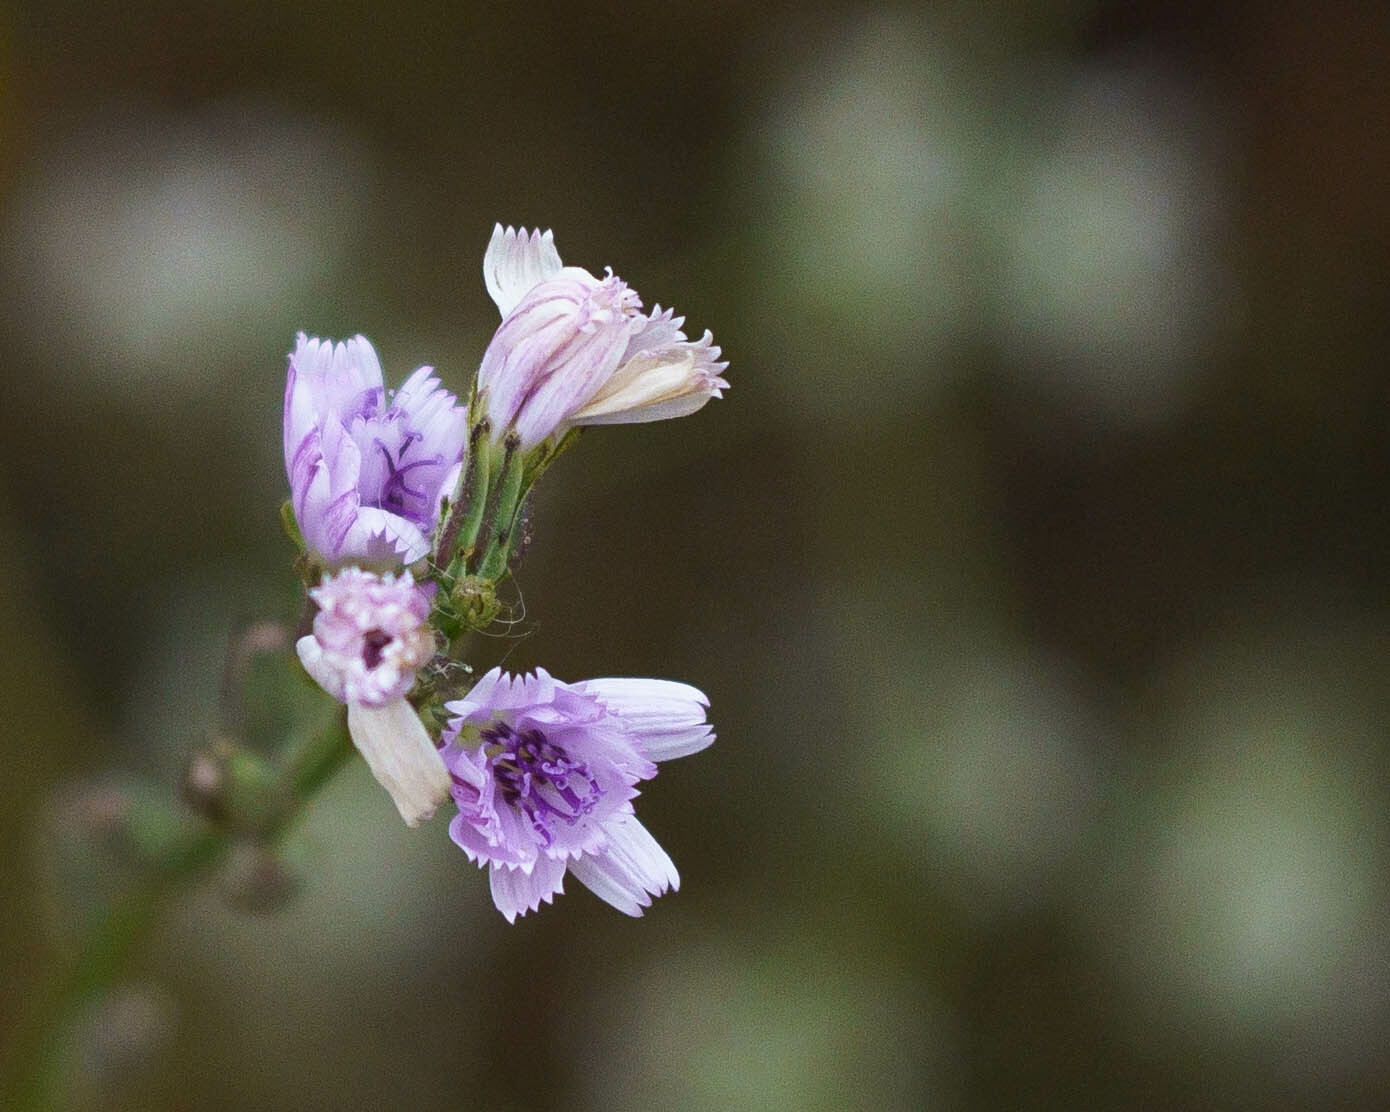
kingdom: Plantae
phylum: Tracheophyta
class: Magnoliopsida
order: Asterales
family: Asteraceae
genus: Stephanomeria
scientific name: Stephanomeria diegensis
